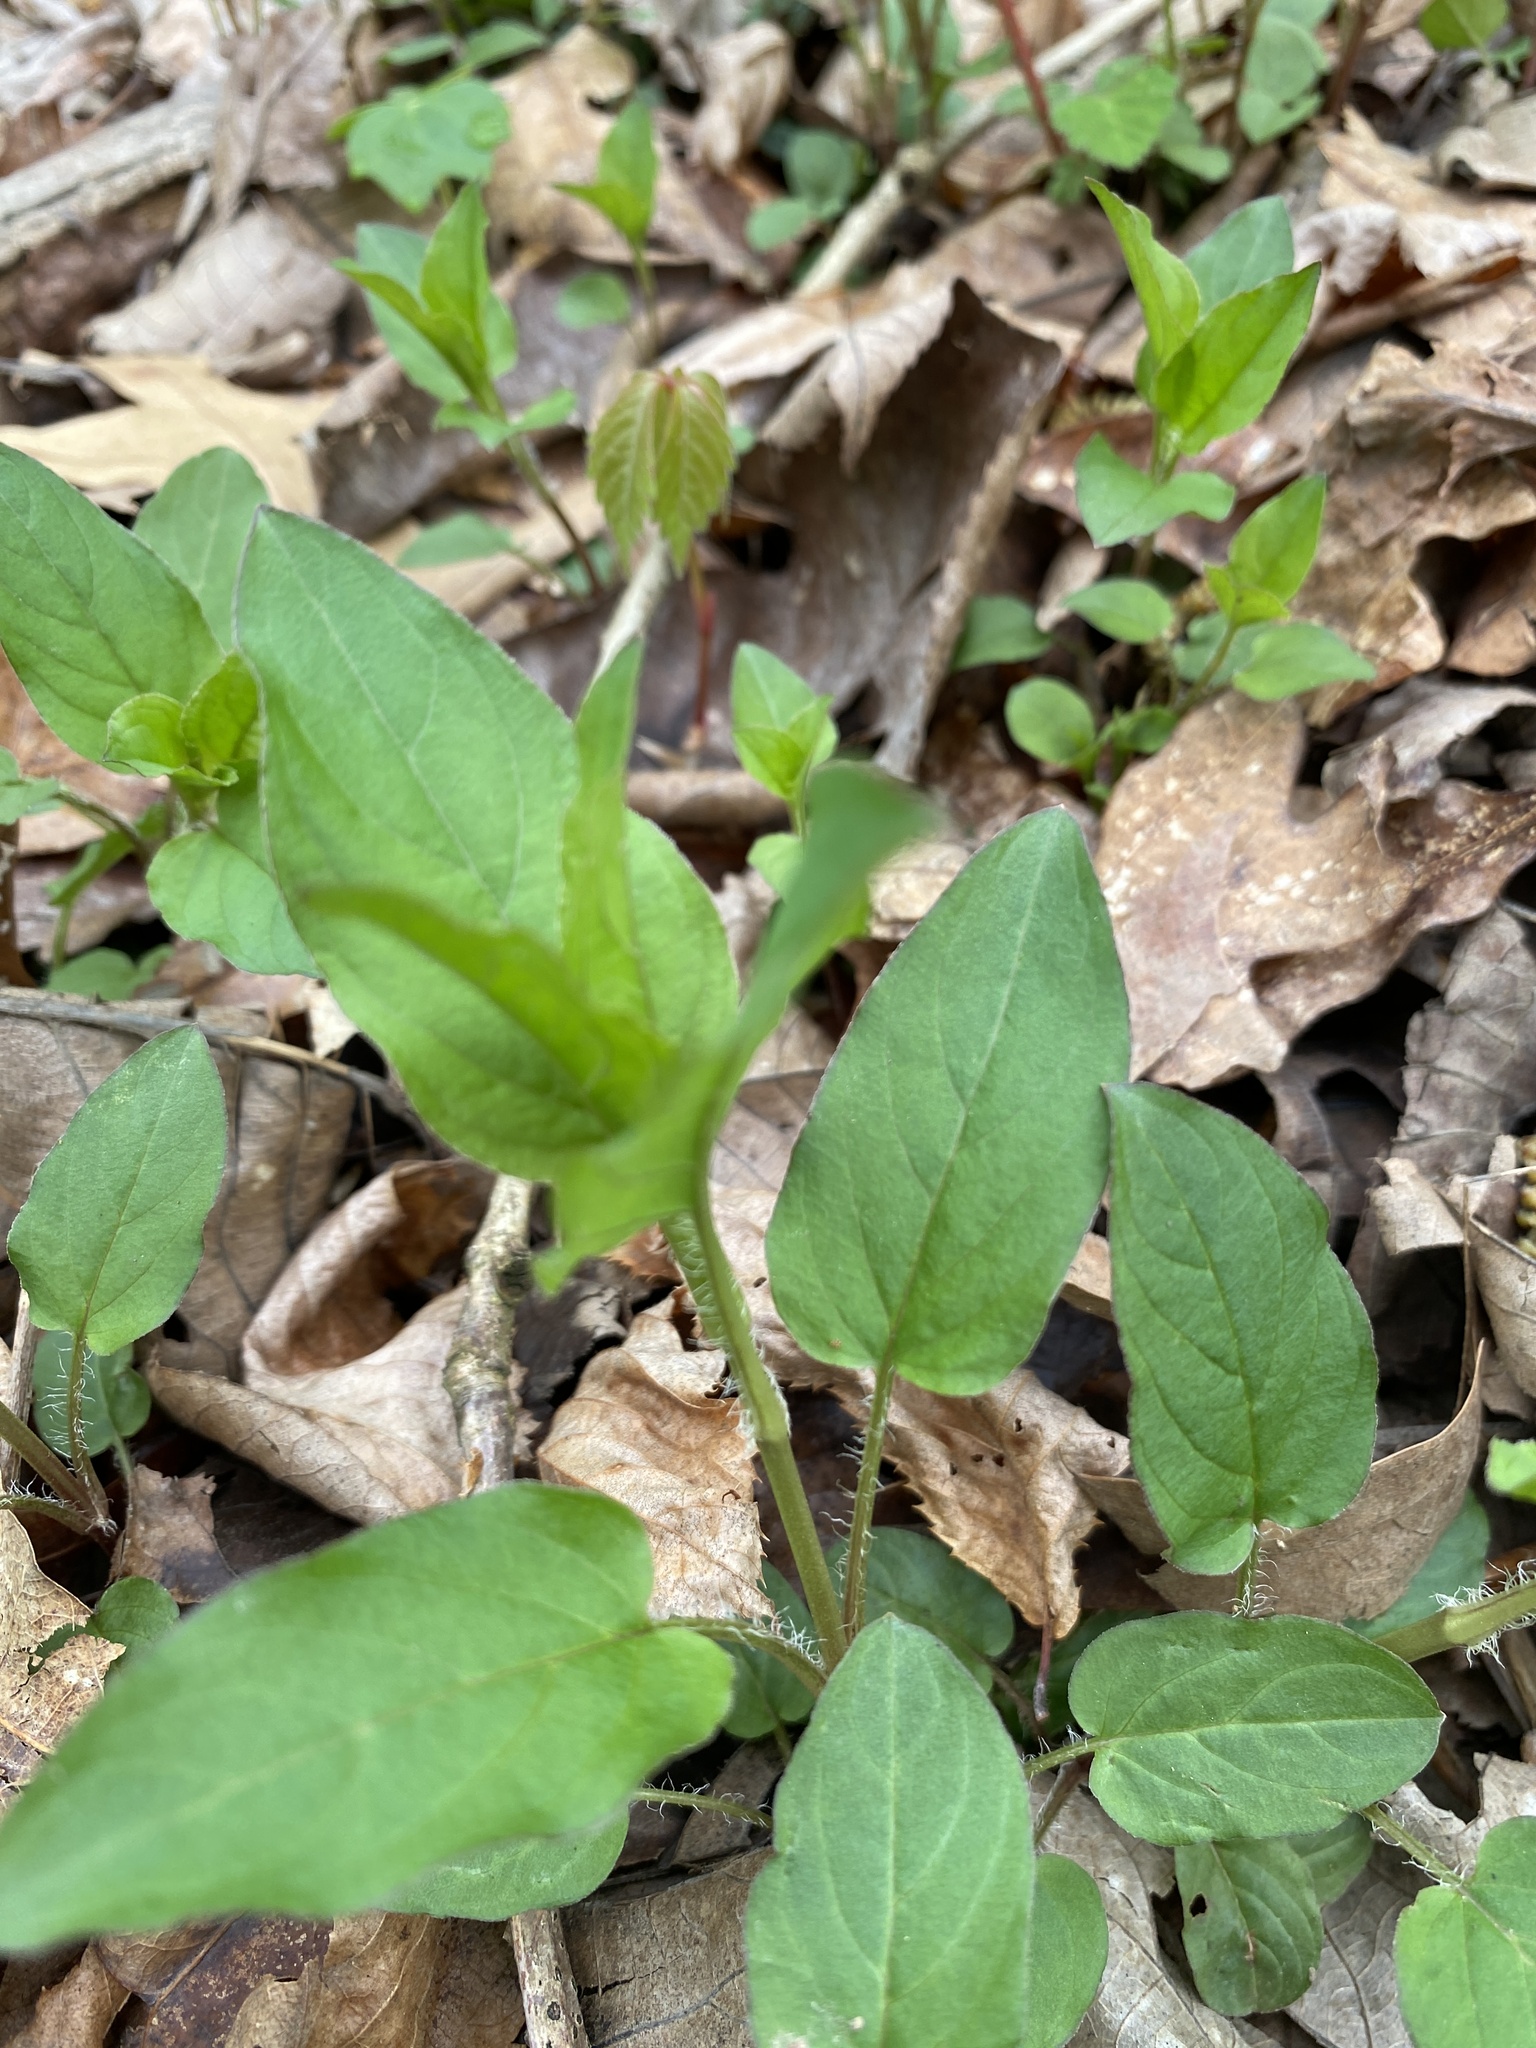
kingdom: Plantae
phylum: Tracheophyta
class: Magnoliopsida
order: Ericales
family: Primulaceae
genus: Lysimachia
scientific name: Lysimachia ciliata
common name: Fringed loosestrife
